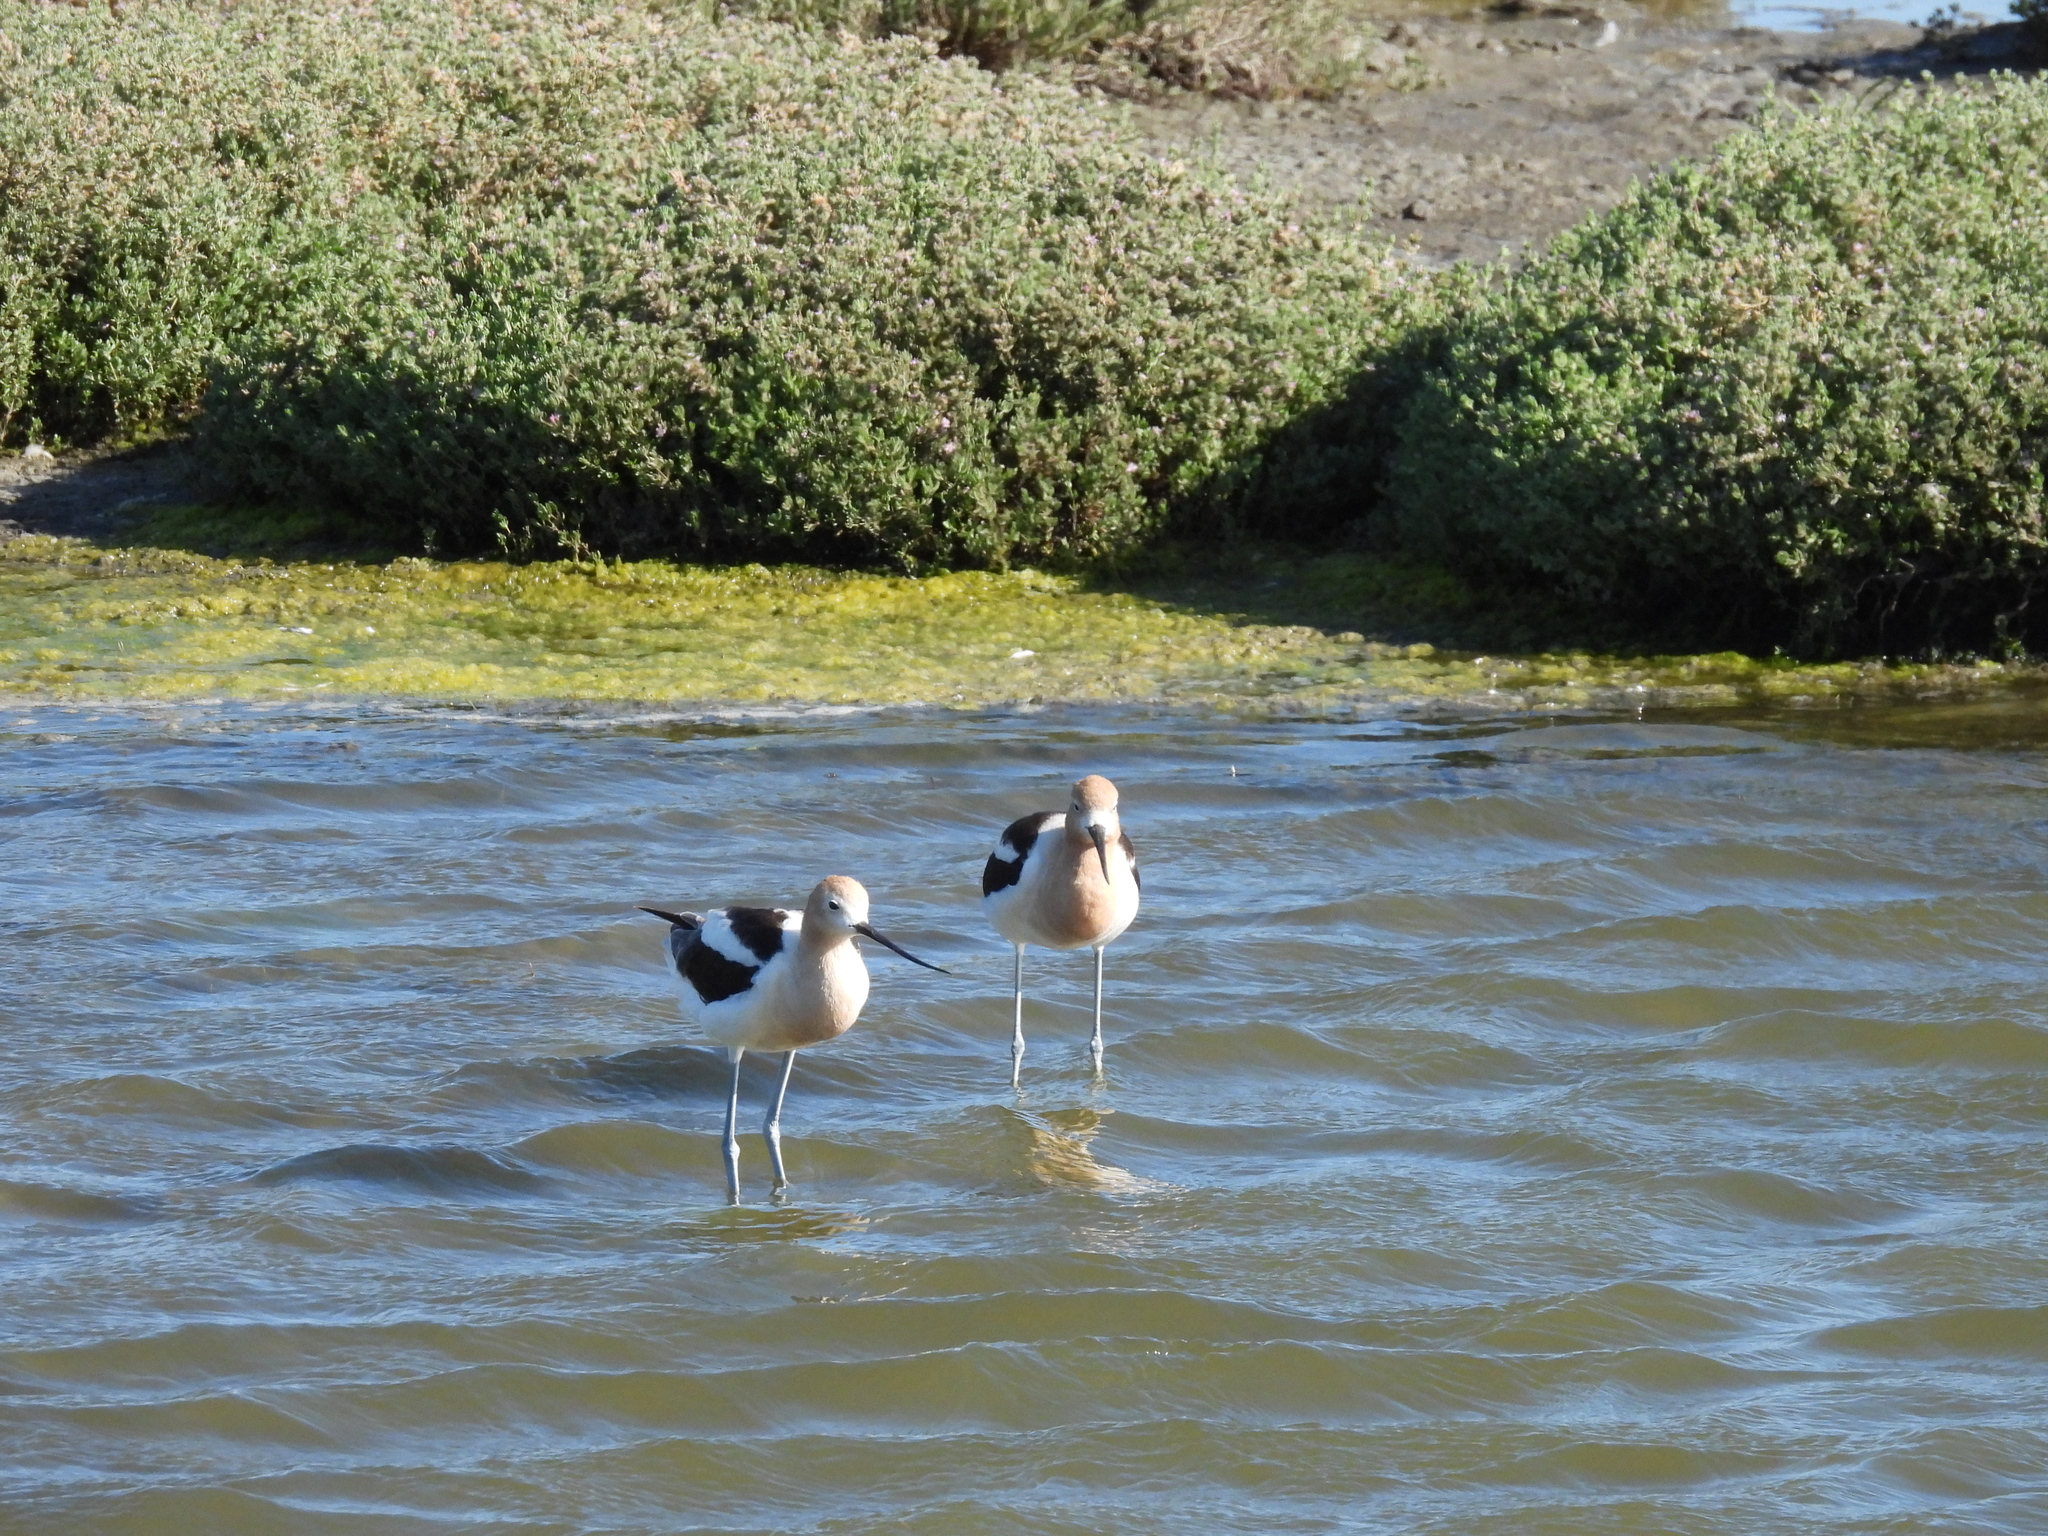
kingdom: Animalia
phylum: Chordata
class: Aves
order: Charadriiformes
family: Recurvirostridae
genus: Recurvirostra
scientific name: Recurvirostra americana
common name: American avocet
